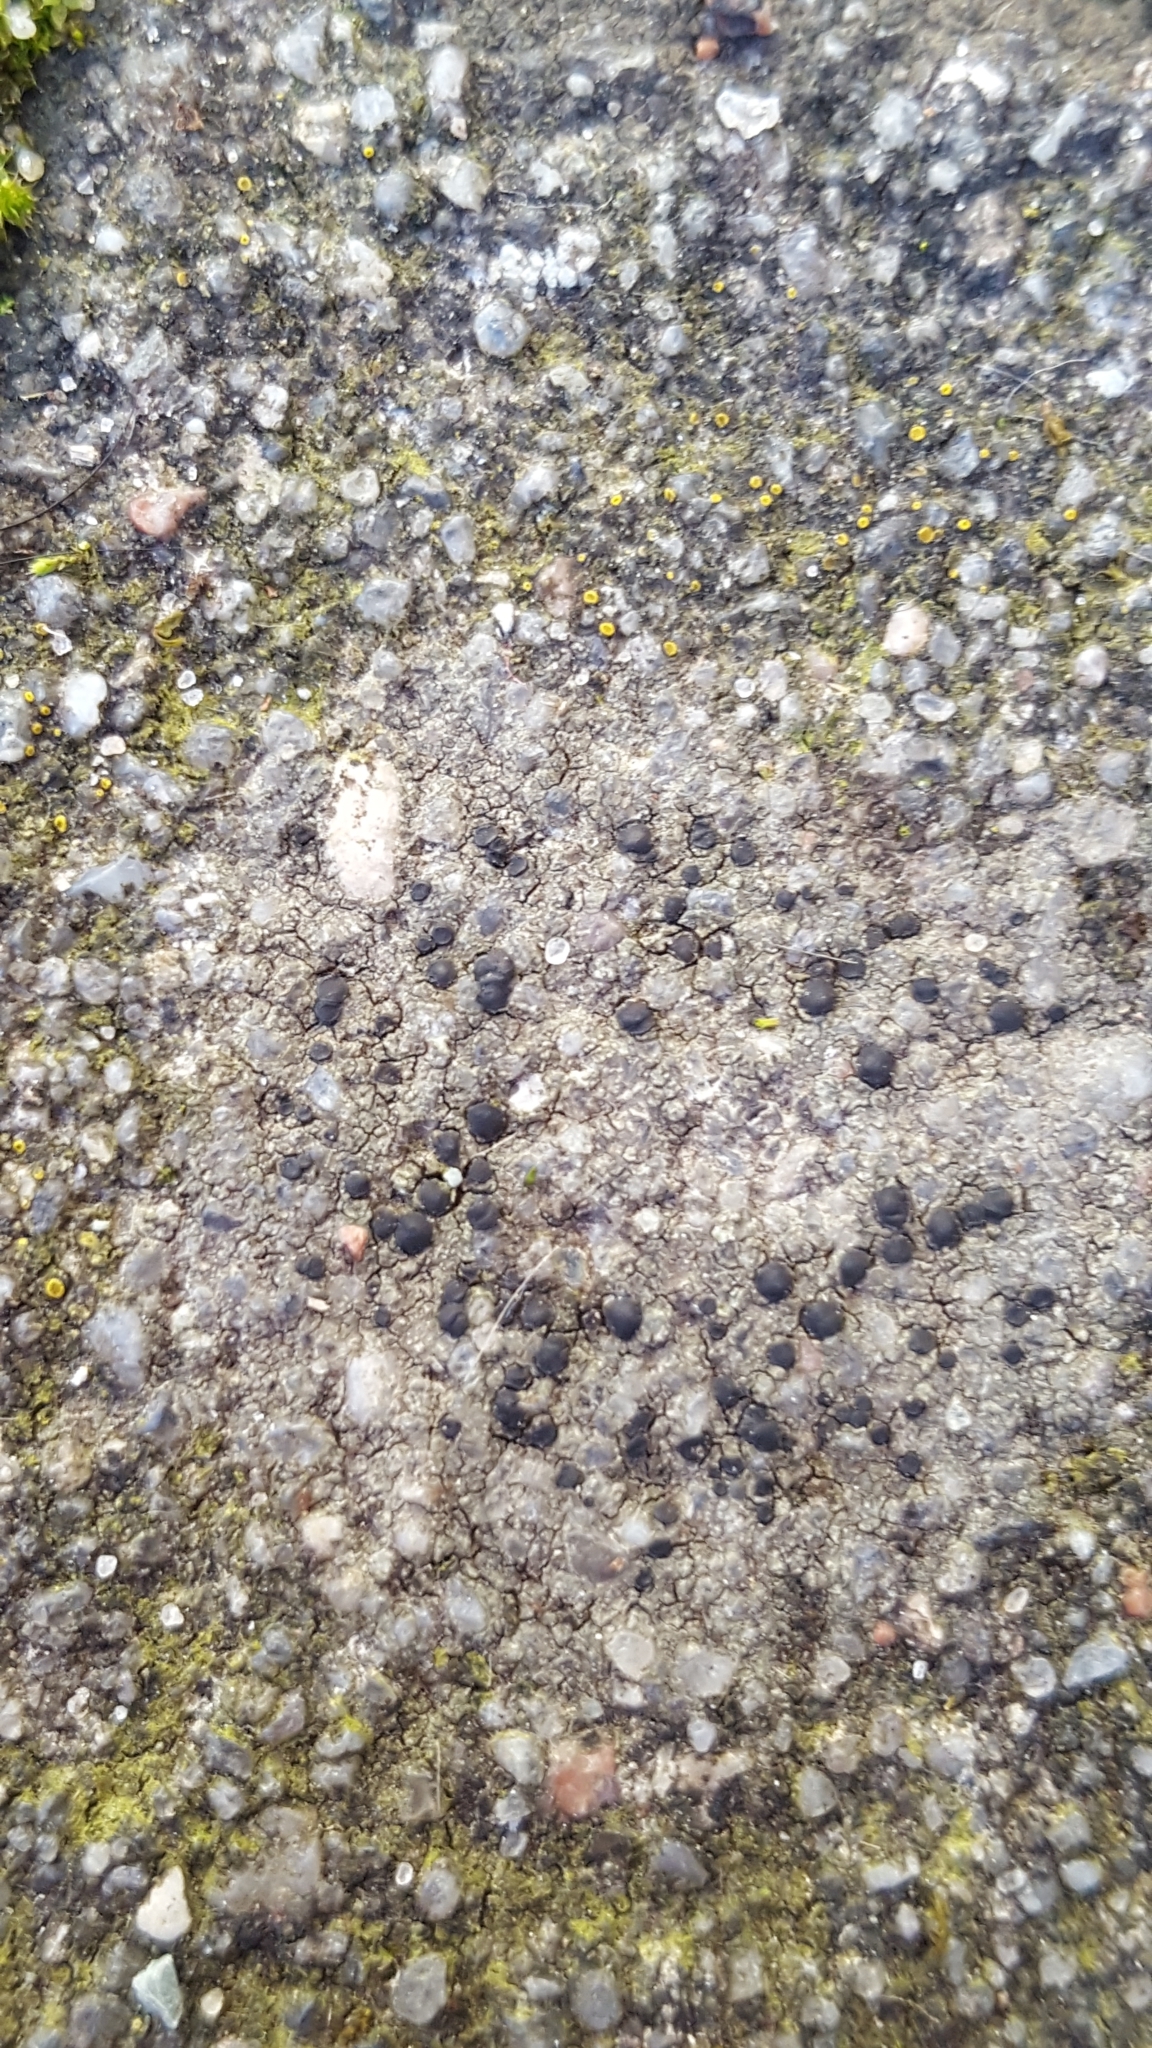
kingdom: Fungi
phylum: Ascomycota
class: Lecanoromycetes
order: Lecanorales
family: Lecanoraceae
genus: Lecidella
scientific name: Lecidella stigmatea
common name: Limestone disc lichen
